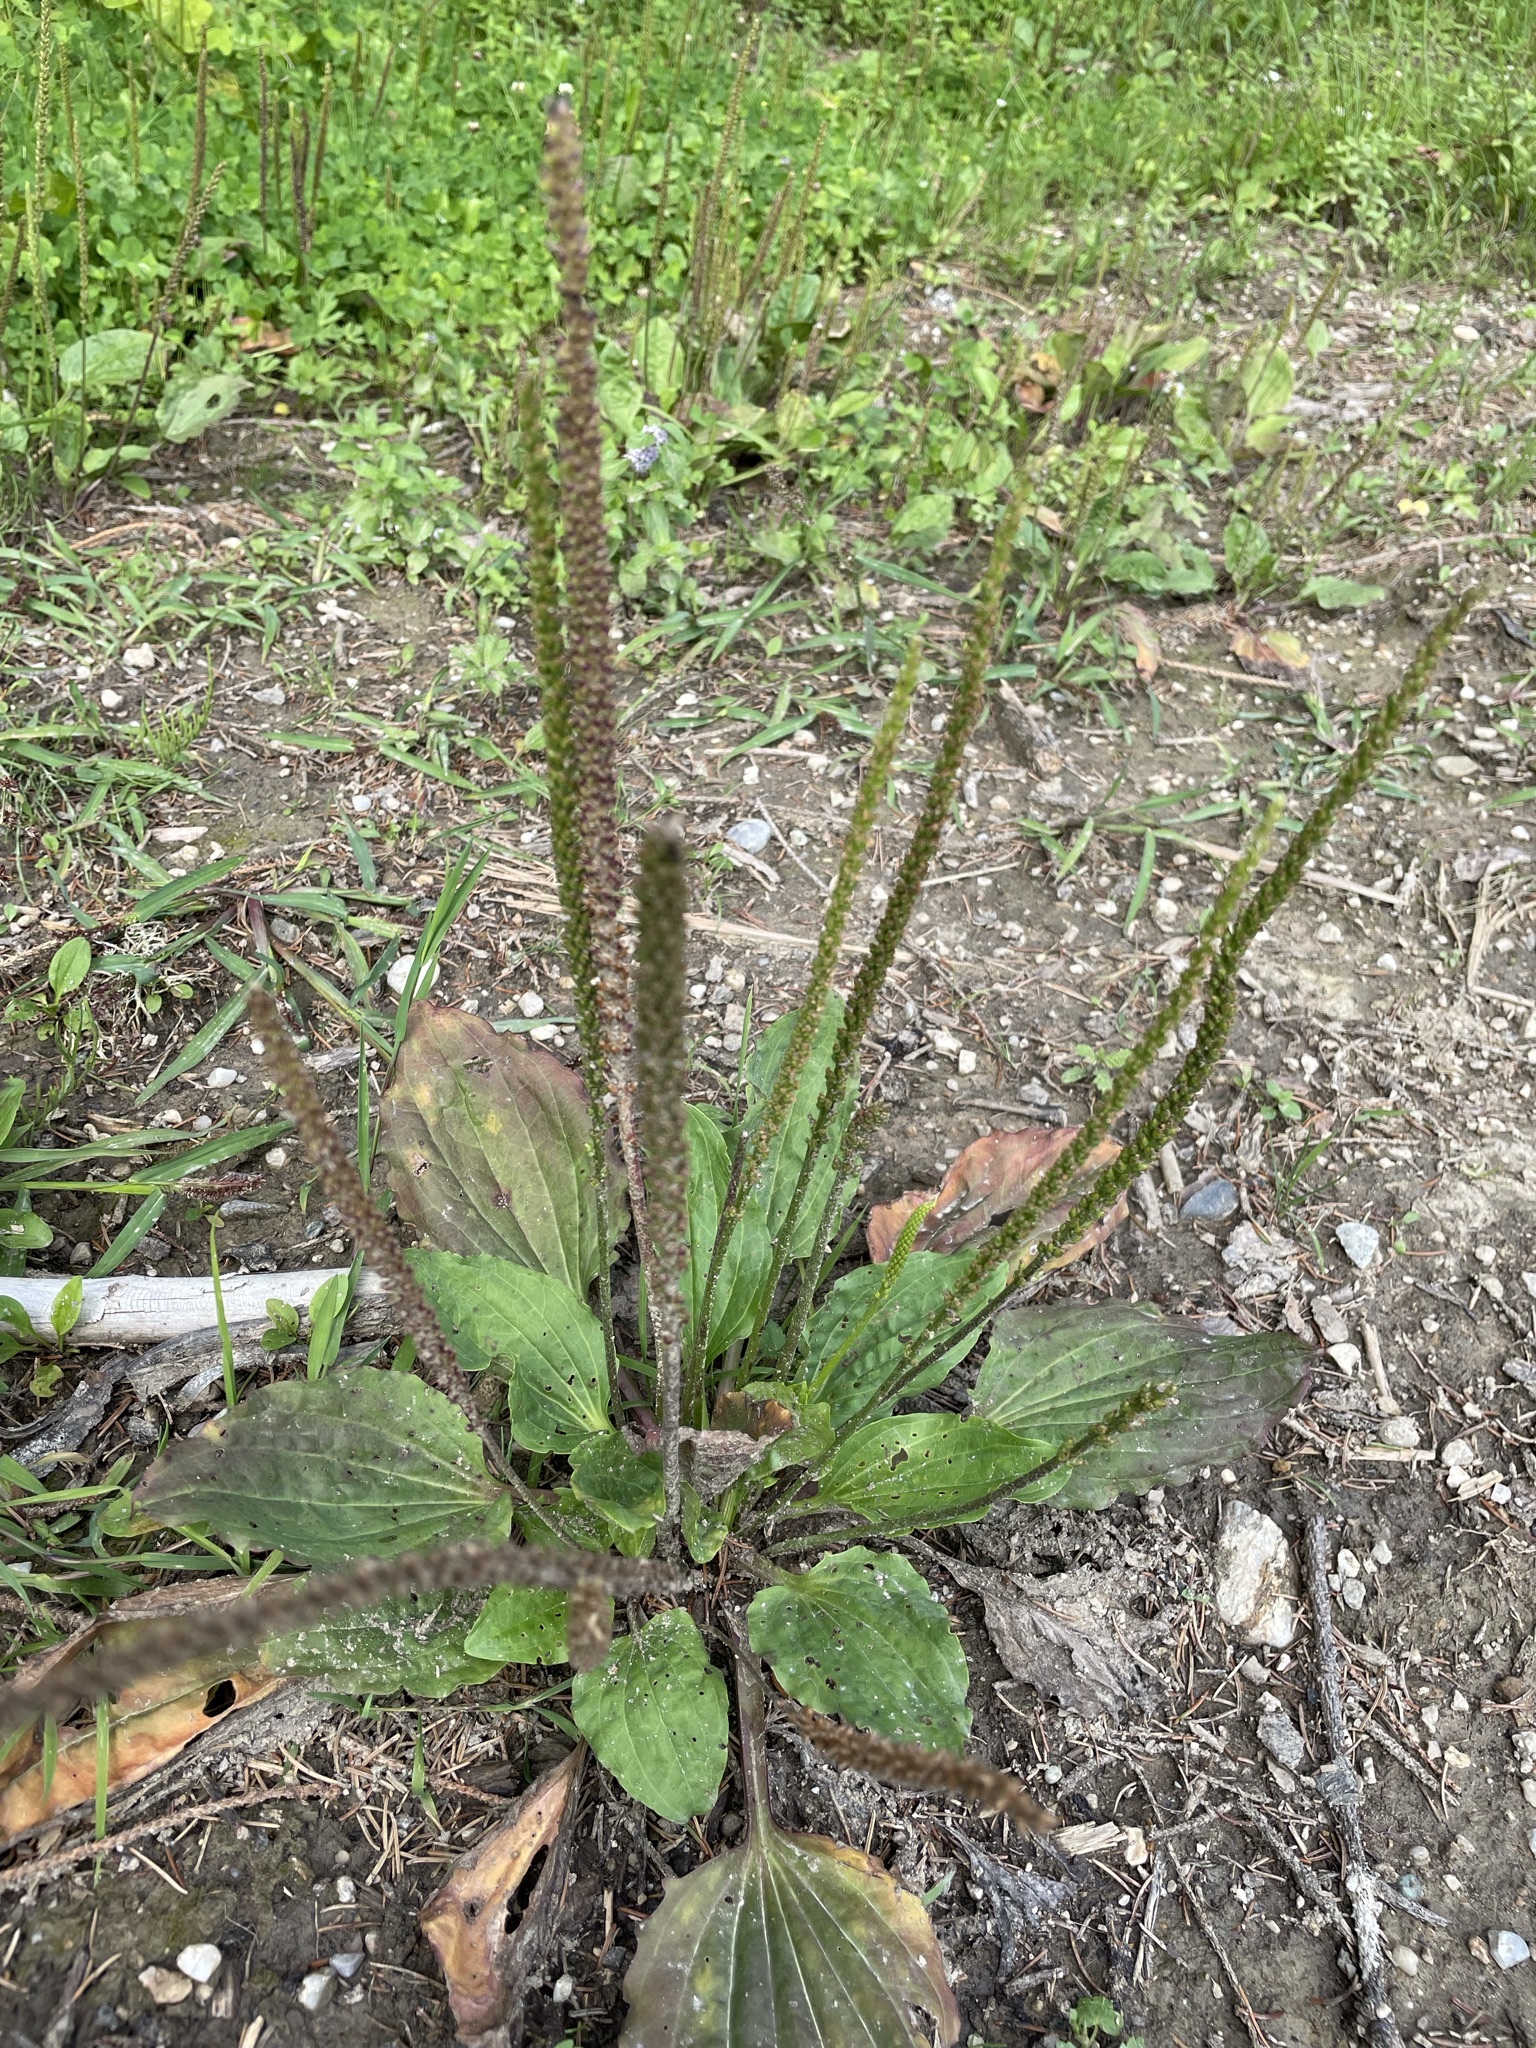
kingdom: Plantae
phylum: Tracheophyta
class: Magnoliopsida
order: Lamiales
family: Plantaginaceae
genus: Plantago
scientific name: Plantago major
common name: Common plantain
